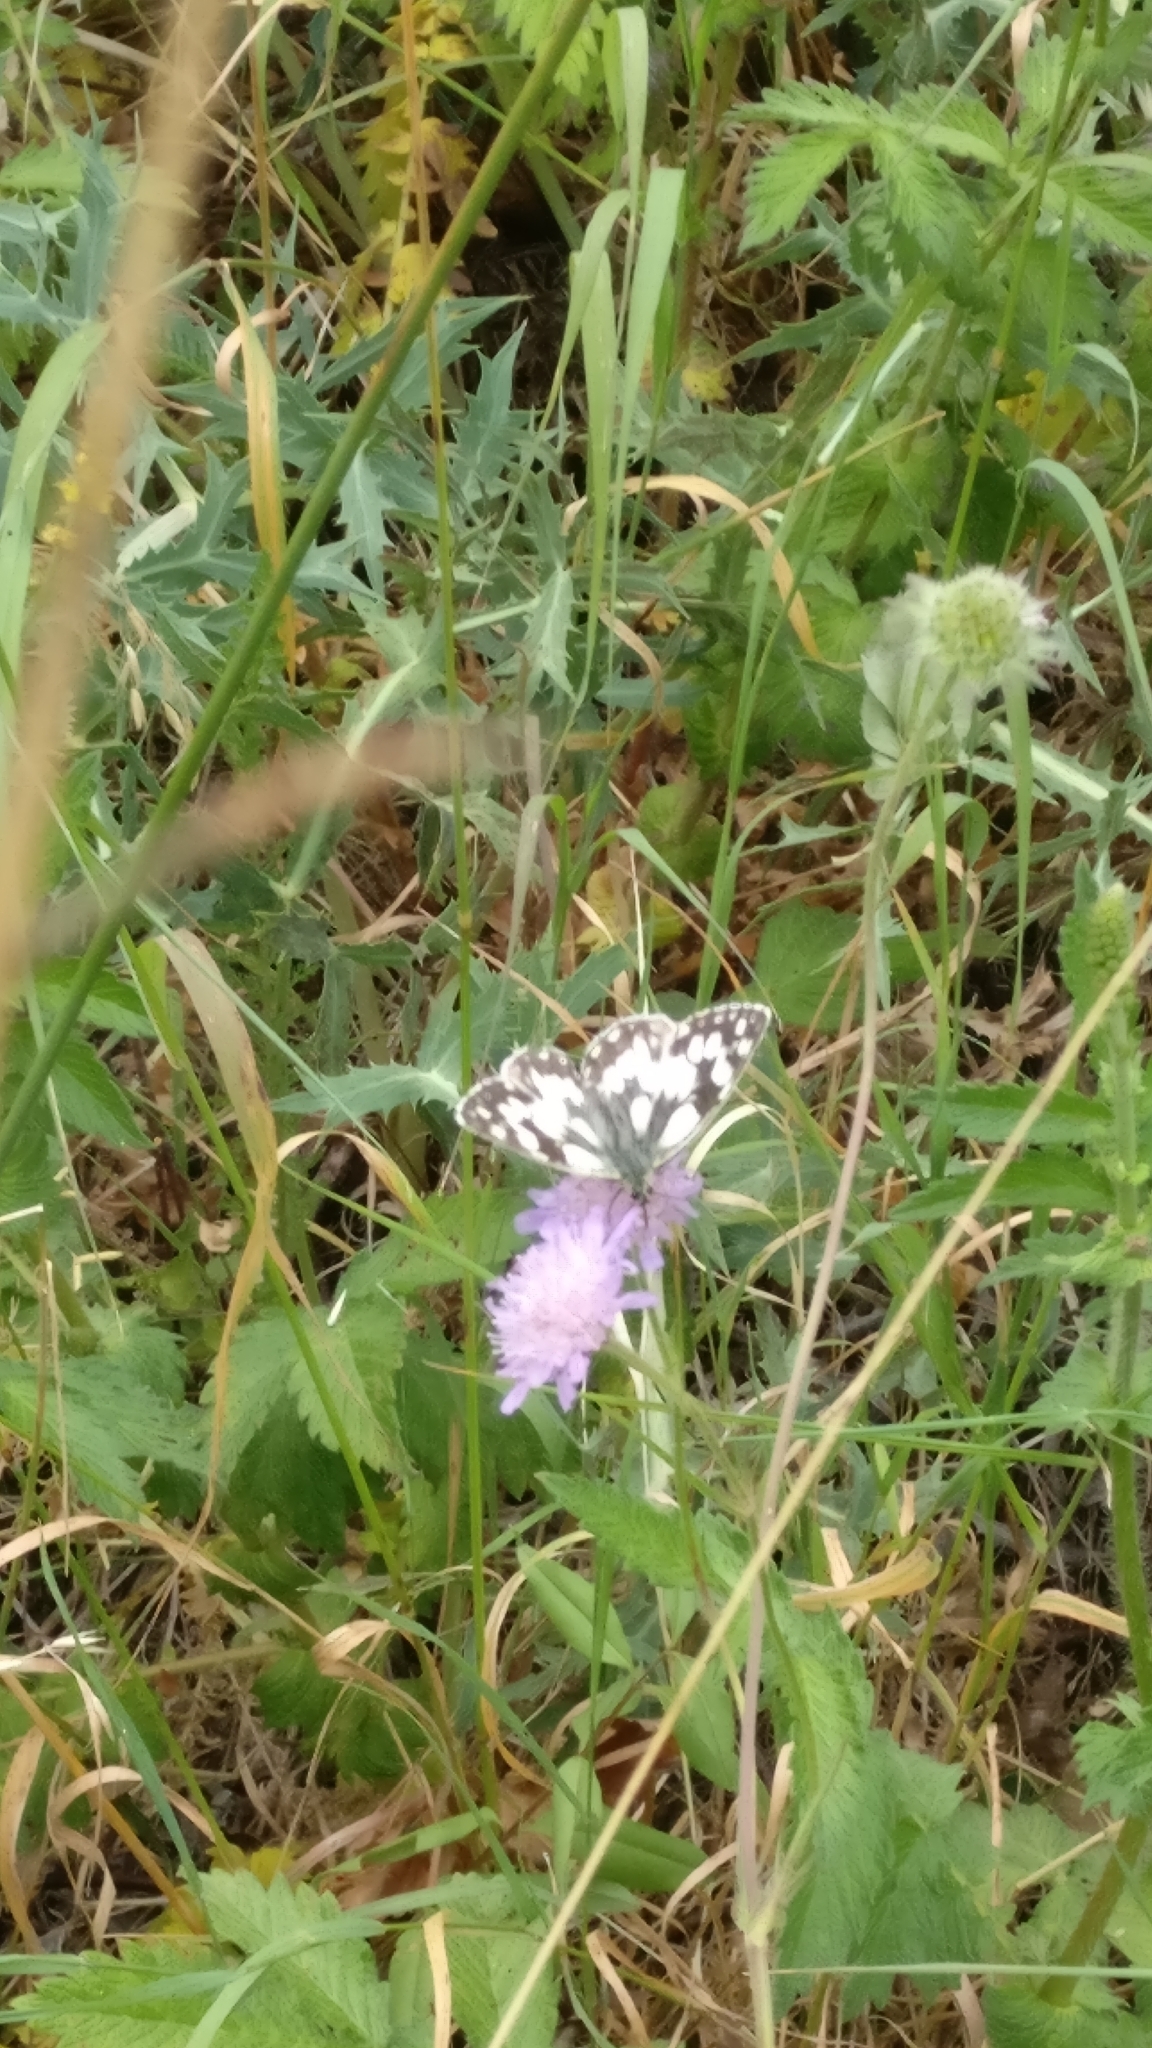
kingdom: Animalia
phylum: Arthropoda
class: Insecta
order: Lepidoptera
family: Nymphalidae
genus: Melanargia
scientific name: Melanargia galathea
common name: Marbled white
